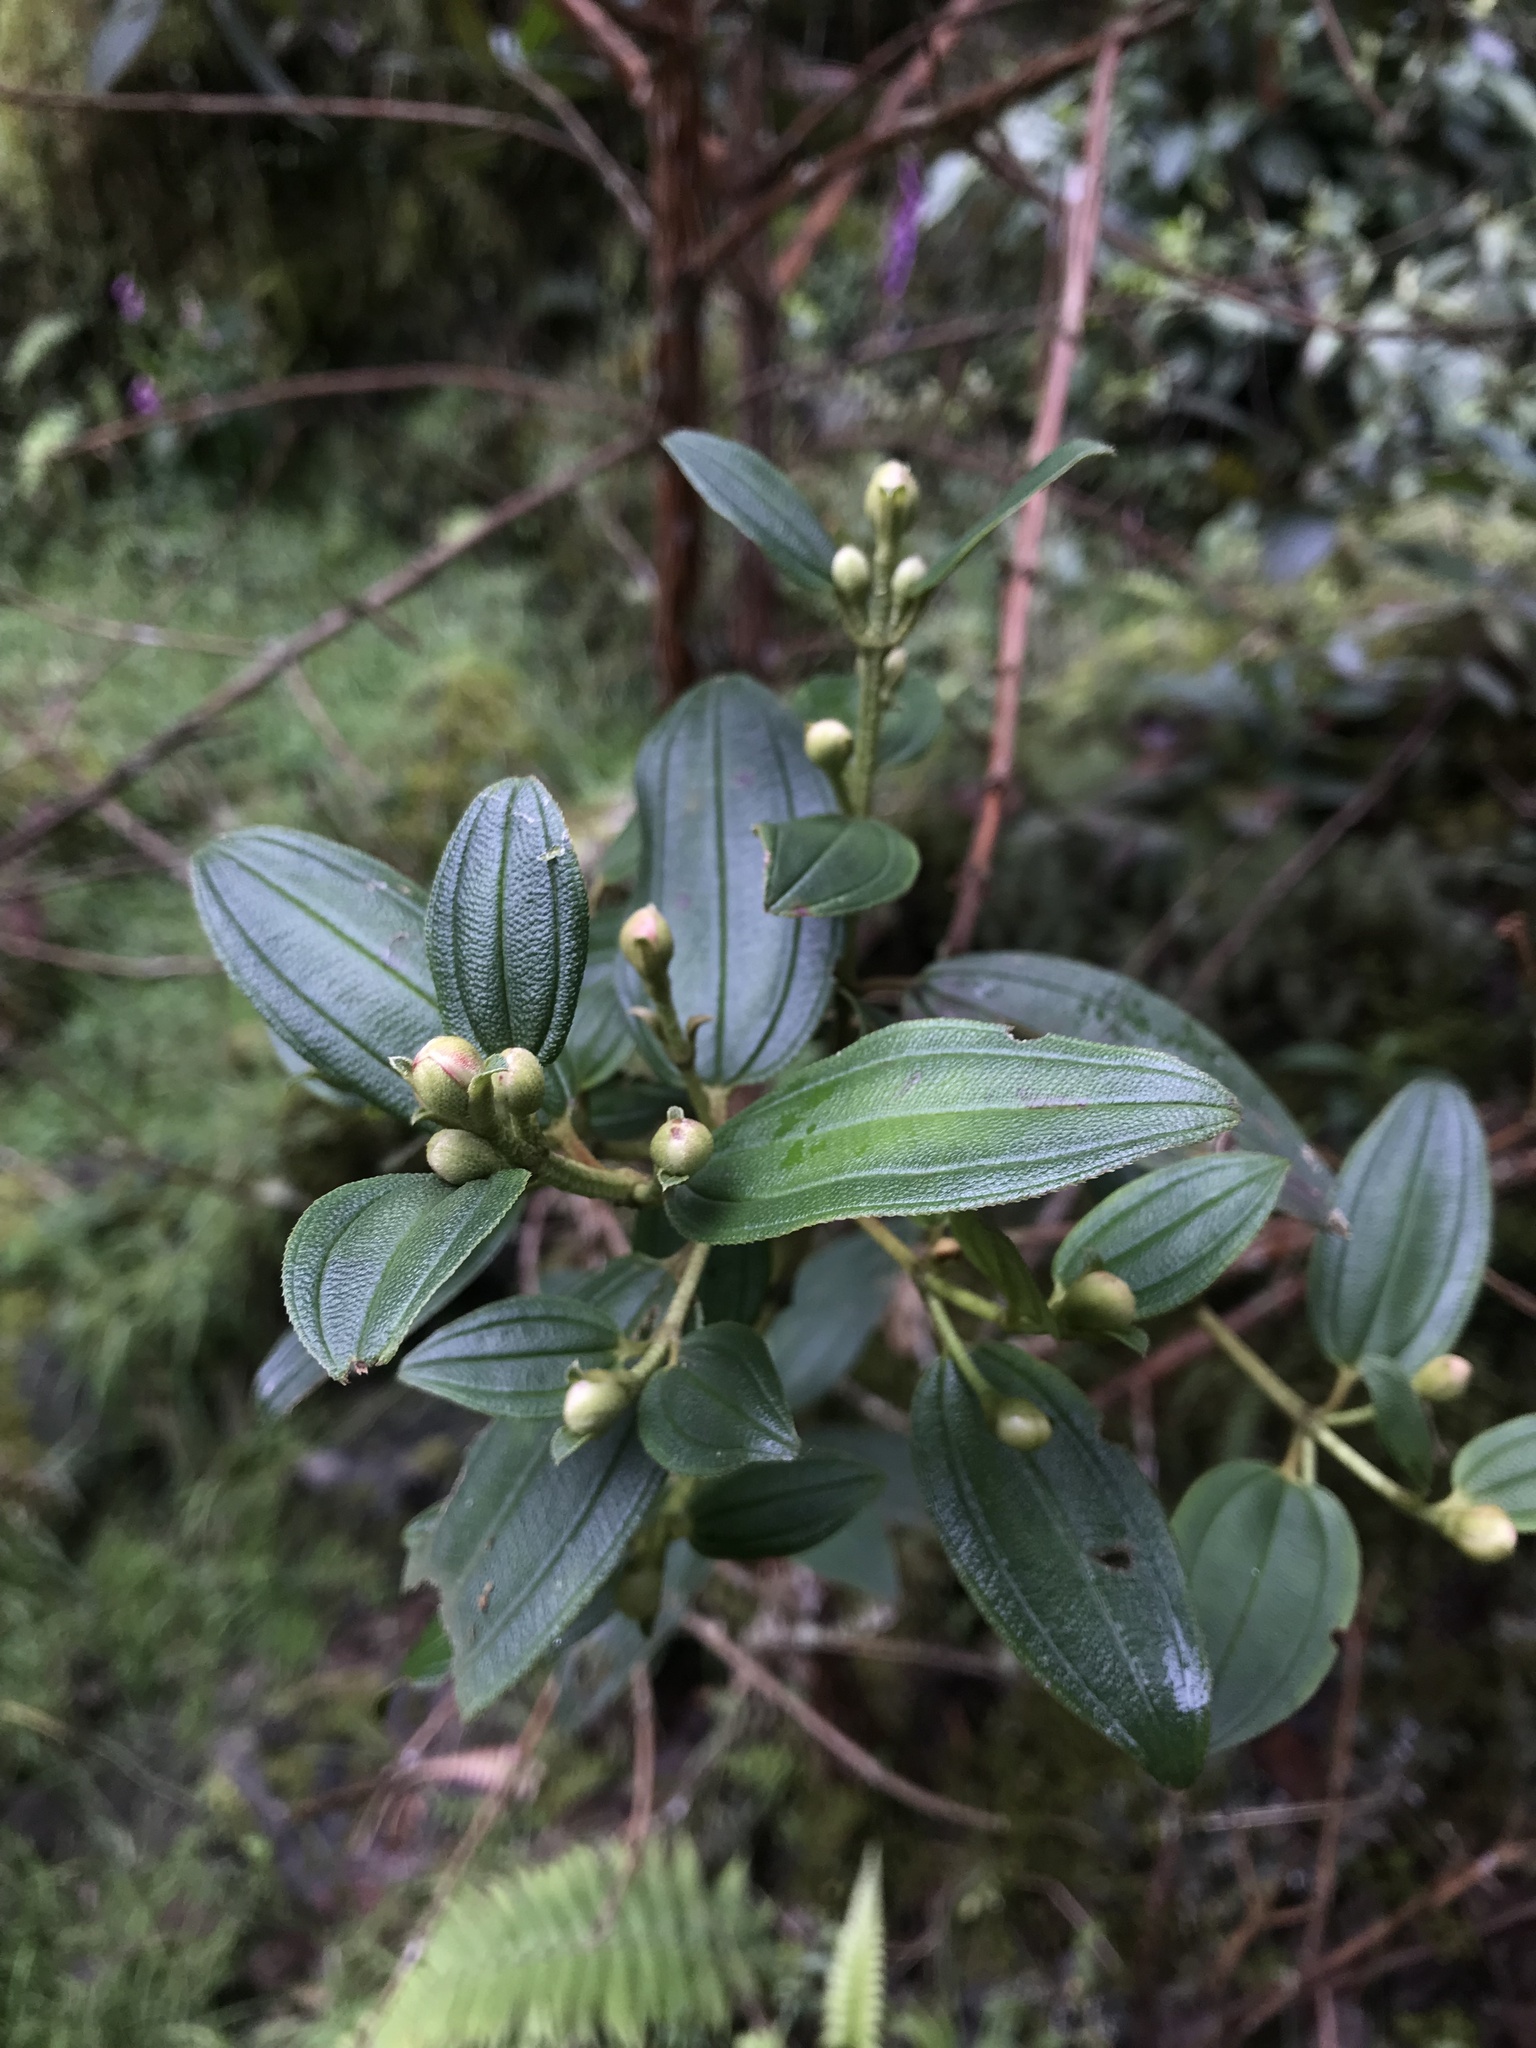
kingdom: Plantae
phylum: Tracheophyta
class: Magnoliopsida
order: Myrtales
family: Melastomataceae
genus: Andesanthus
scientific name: Andesanthus lepidotus
